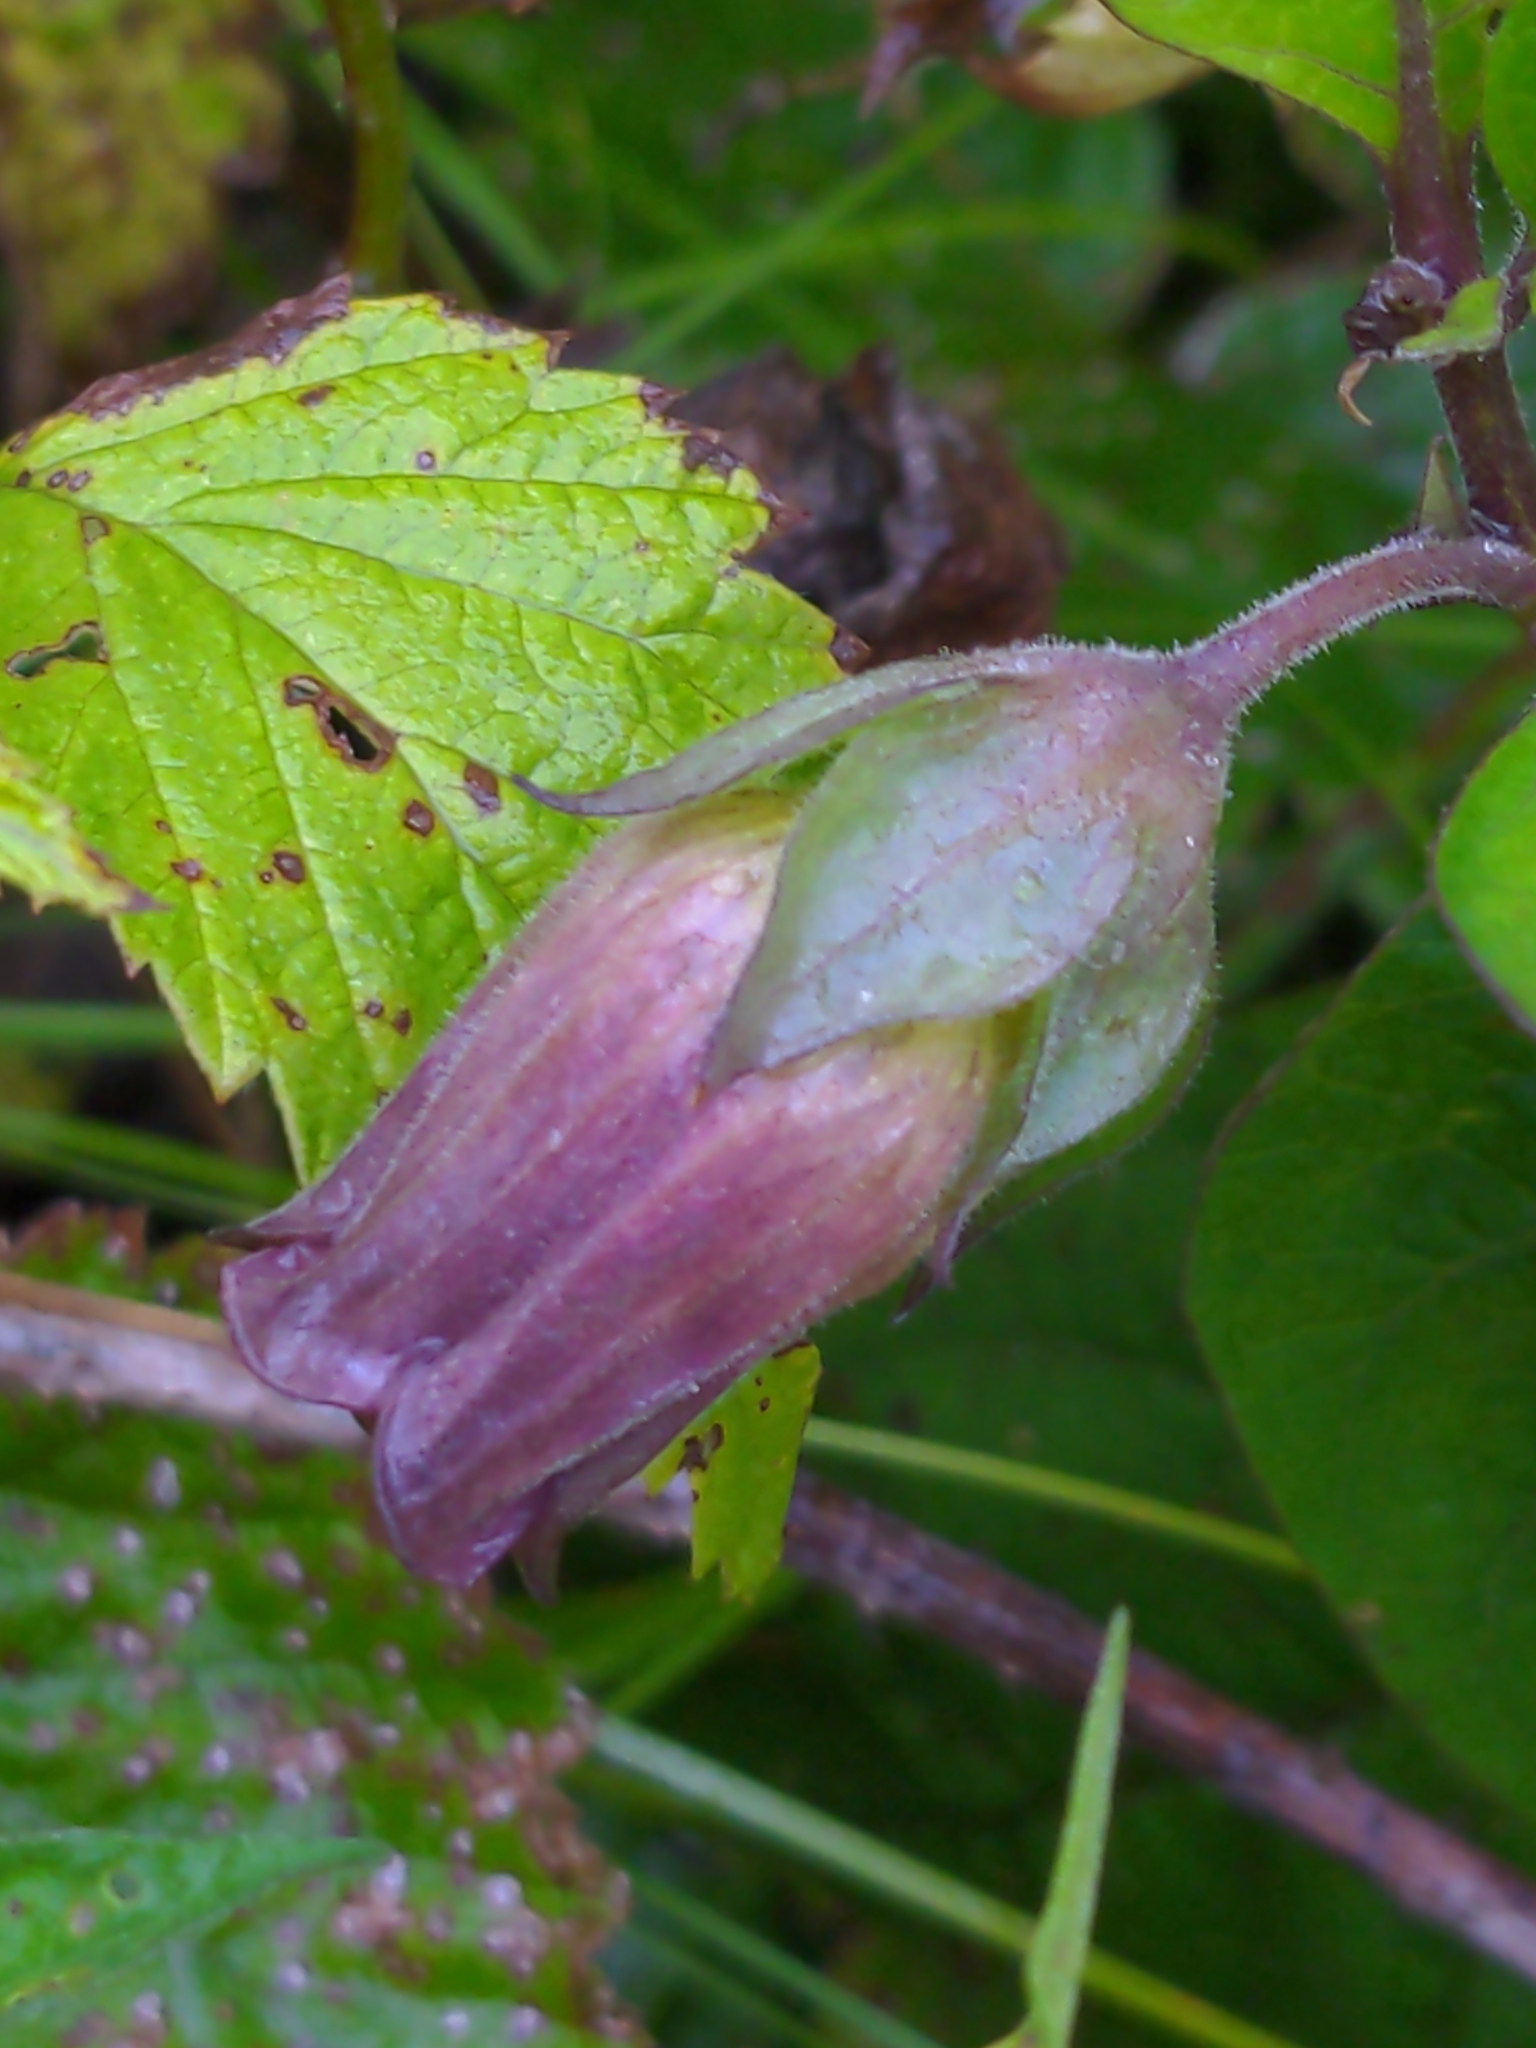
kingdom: Plantae
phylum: Tracheophyta
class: Magnoliopsida
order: Solanales
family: Solanaceae
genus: Atropa
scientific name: Atropa belladonna
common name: Deadly nightshade
